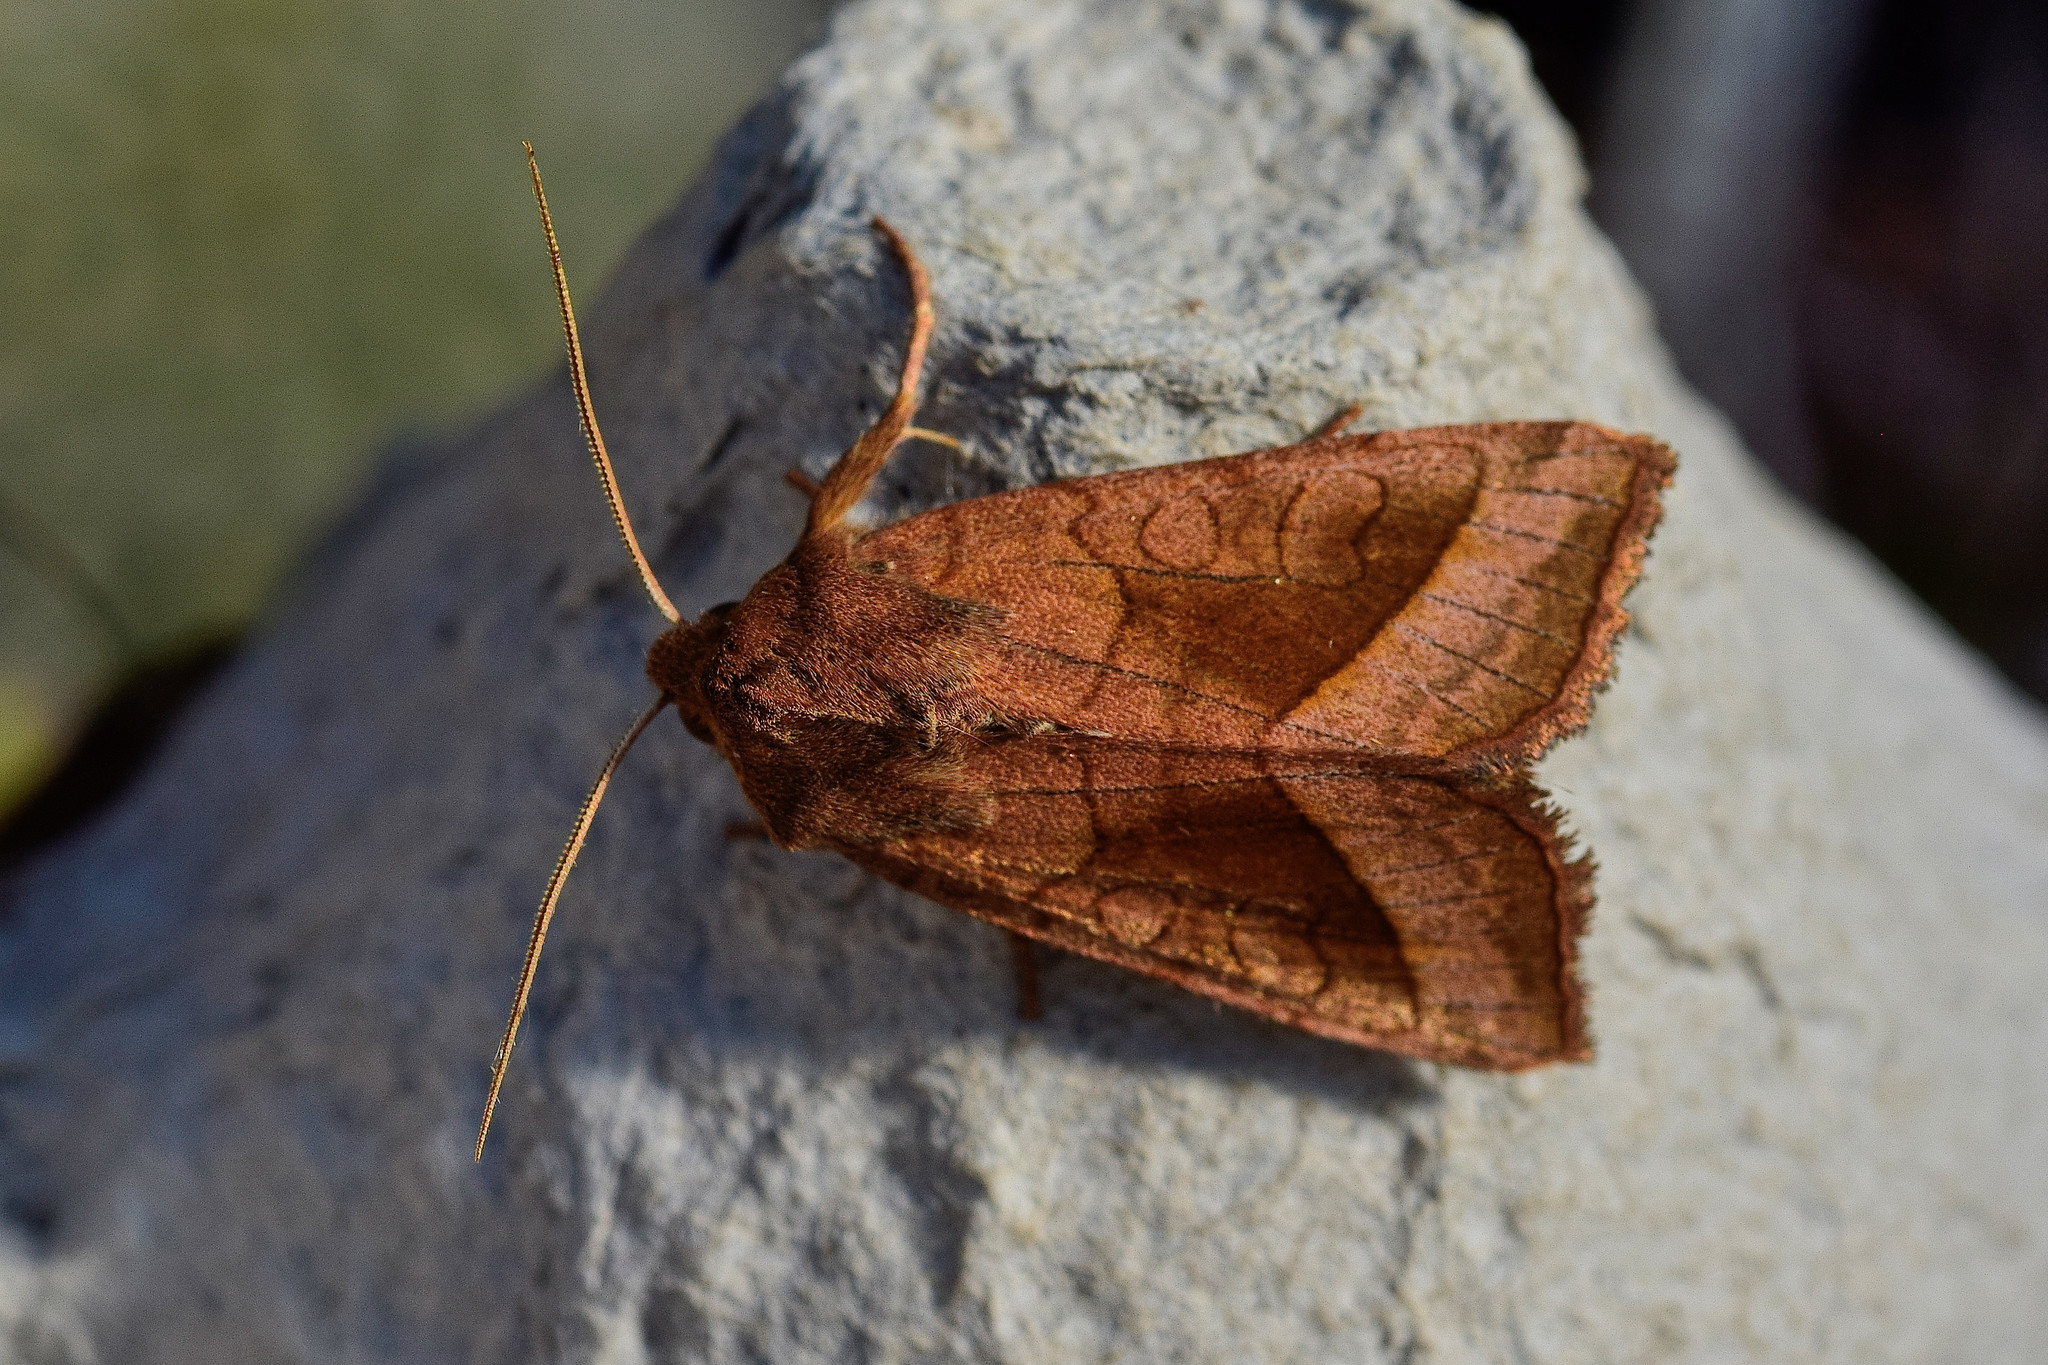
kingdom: Animalia
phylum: Arthropoda
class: Insecta
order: Lepidoptera
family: Noctuidae
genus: Hydraecia
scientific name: Hydraecia micacea
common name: Rosy rustic
